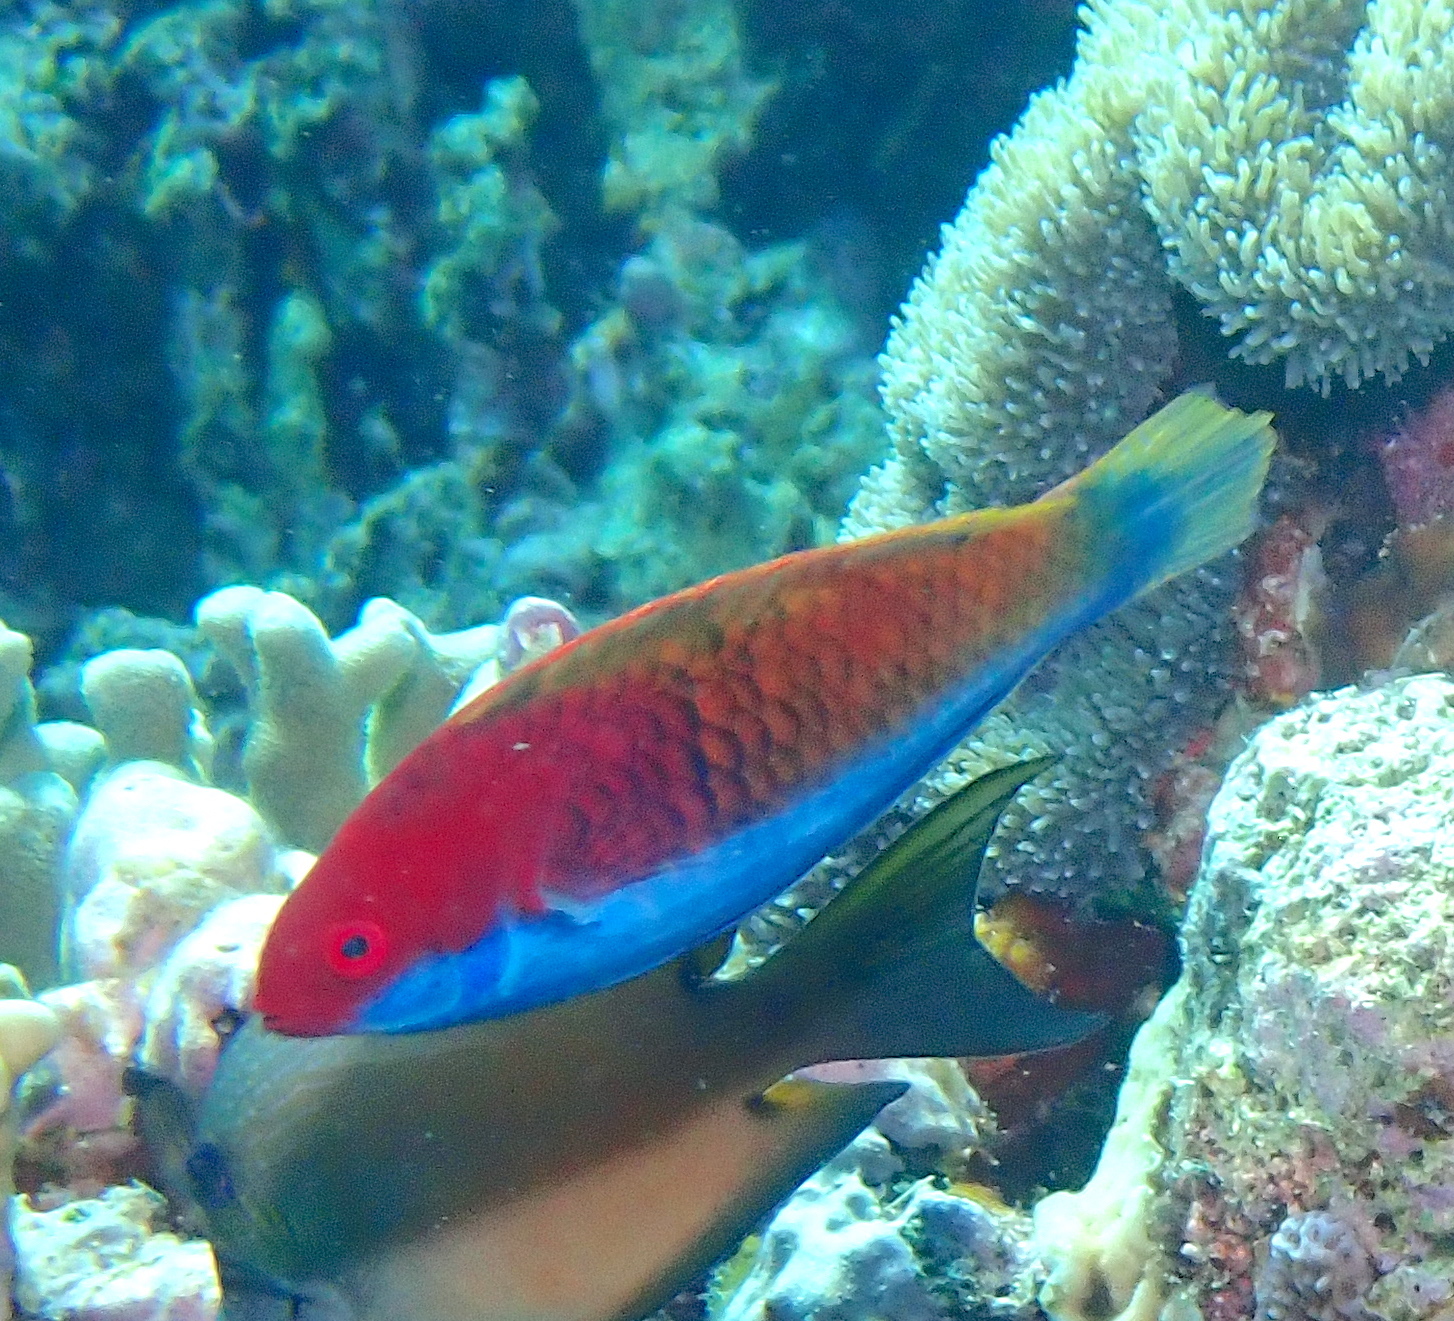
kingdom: Animalia
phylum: Chordata
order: Perciformes
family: Labridae
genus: Cirrhilabrus
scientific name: Cirrhilabrus chaliasi
